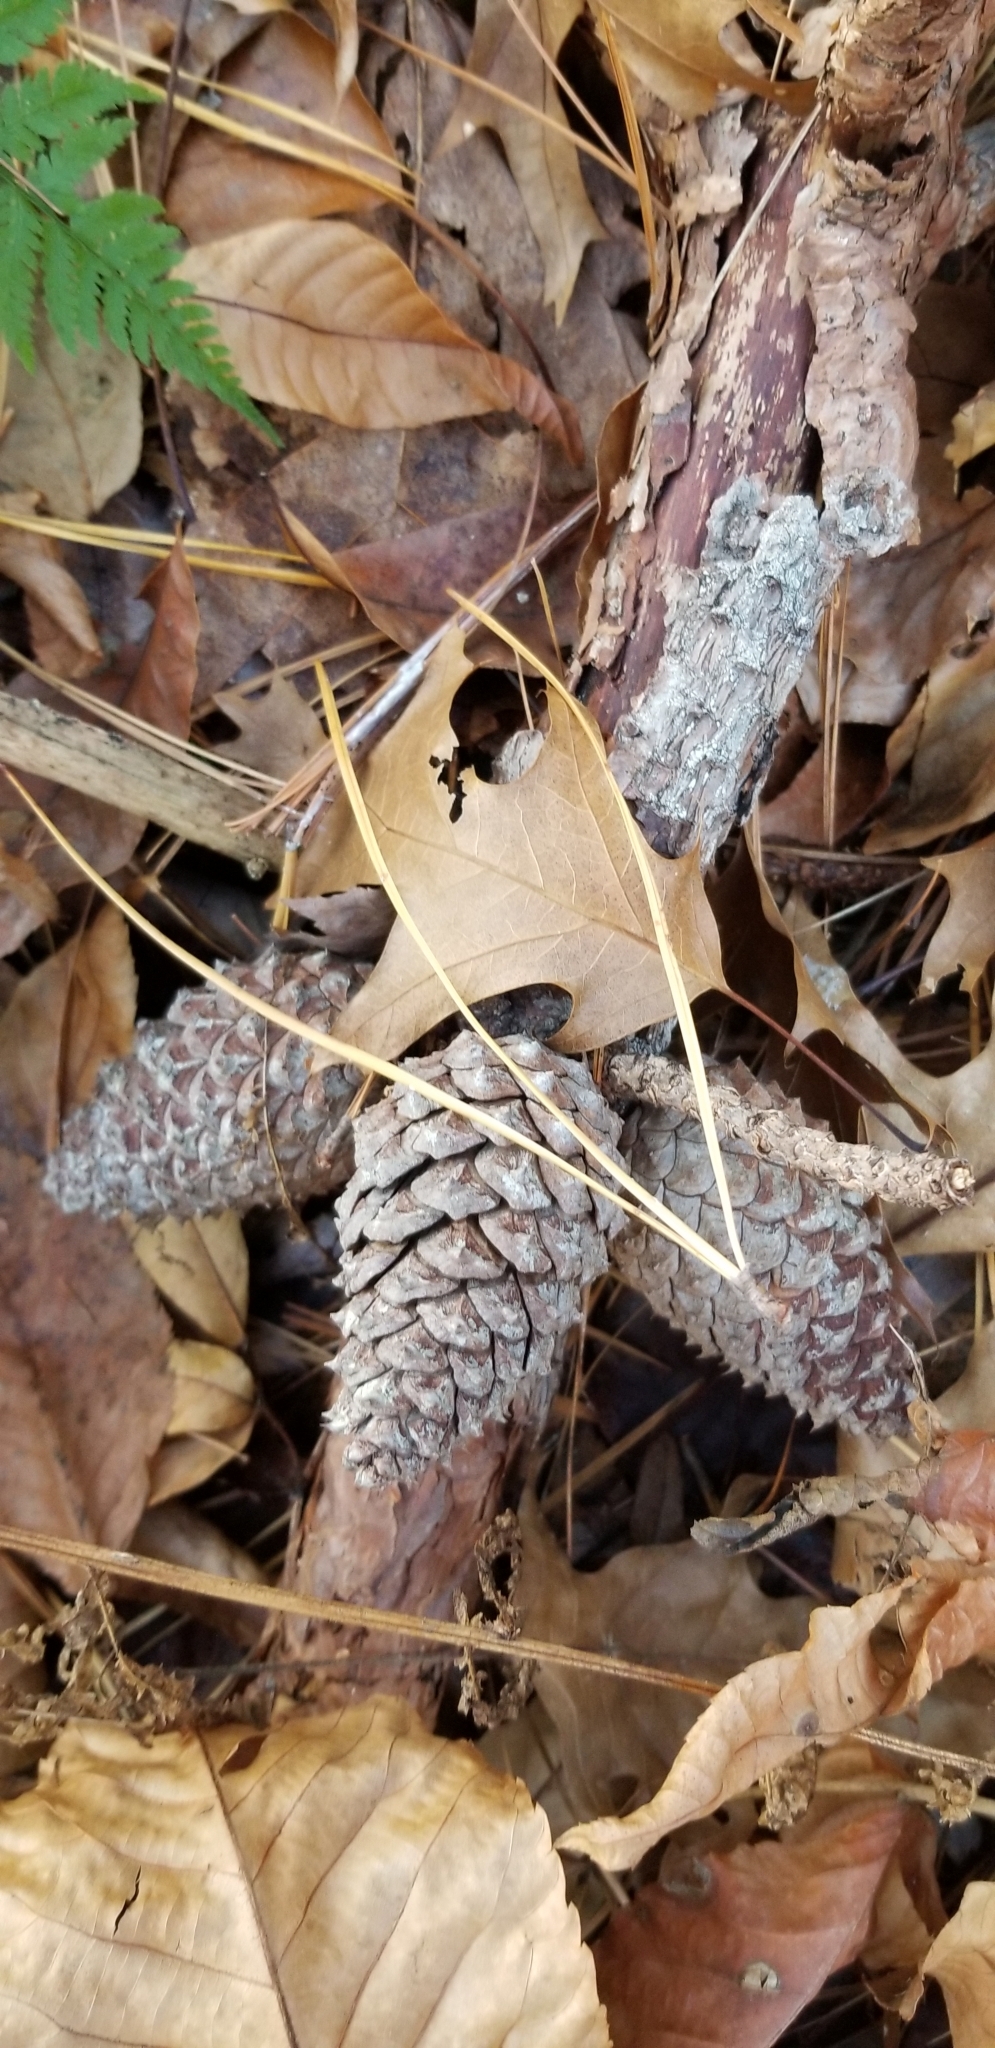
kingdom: Plantae
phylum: Tracheophyta
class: Pinopsida
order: Pinales
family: Pinaceae
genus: Pinus
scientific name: Pinus rigida
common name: Pitch pine
